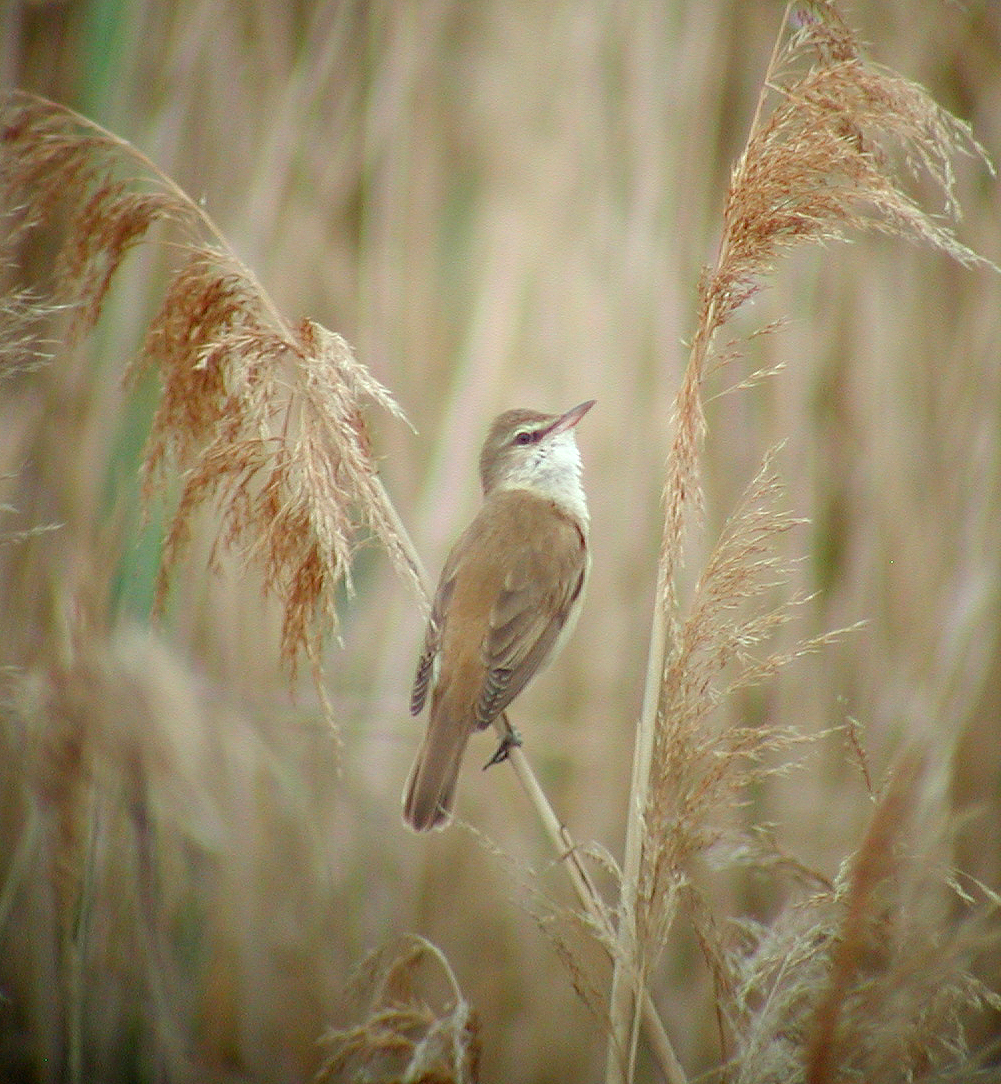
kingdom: Animalia
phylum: Chordata
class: Aves
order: Passeriformes
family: Acrocephalidae
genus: Acrocephalus
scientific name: Acrocephalus arundinaceus
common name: Great reed warbler
